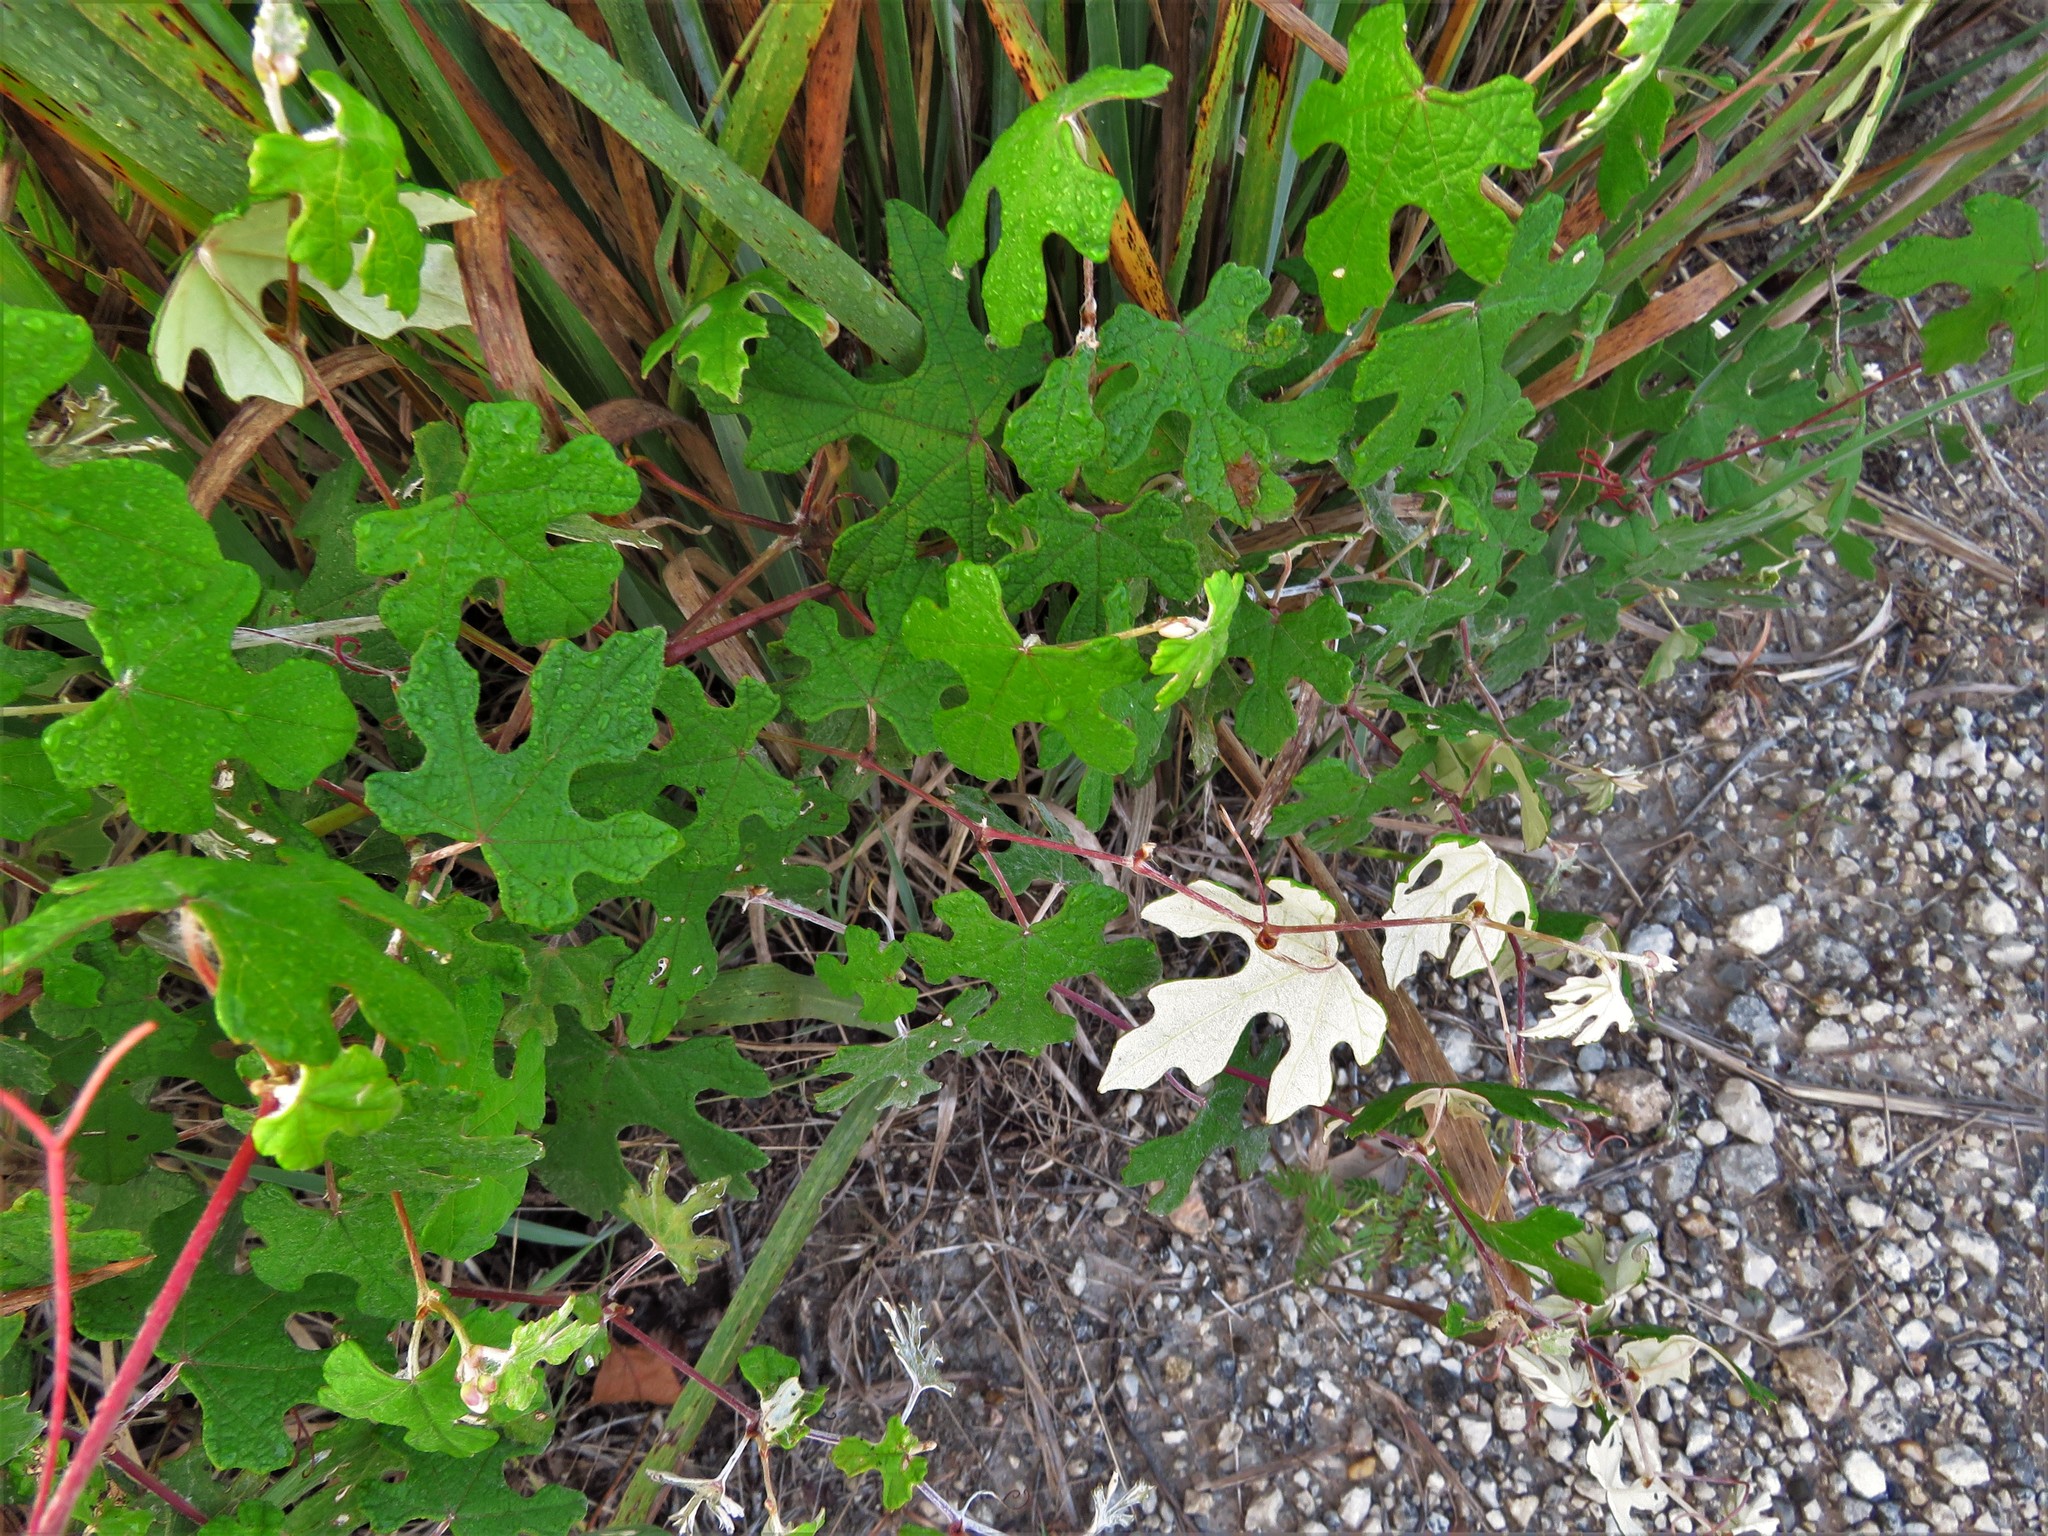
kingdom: Plantae
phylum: Tracheophyta
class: Magnoliopsida
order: Vitales
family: Vitaceae
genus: Vitis
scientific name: Vitis mustangensis
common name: Mustang grape
